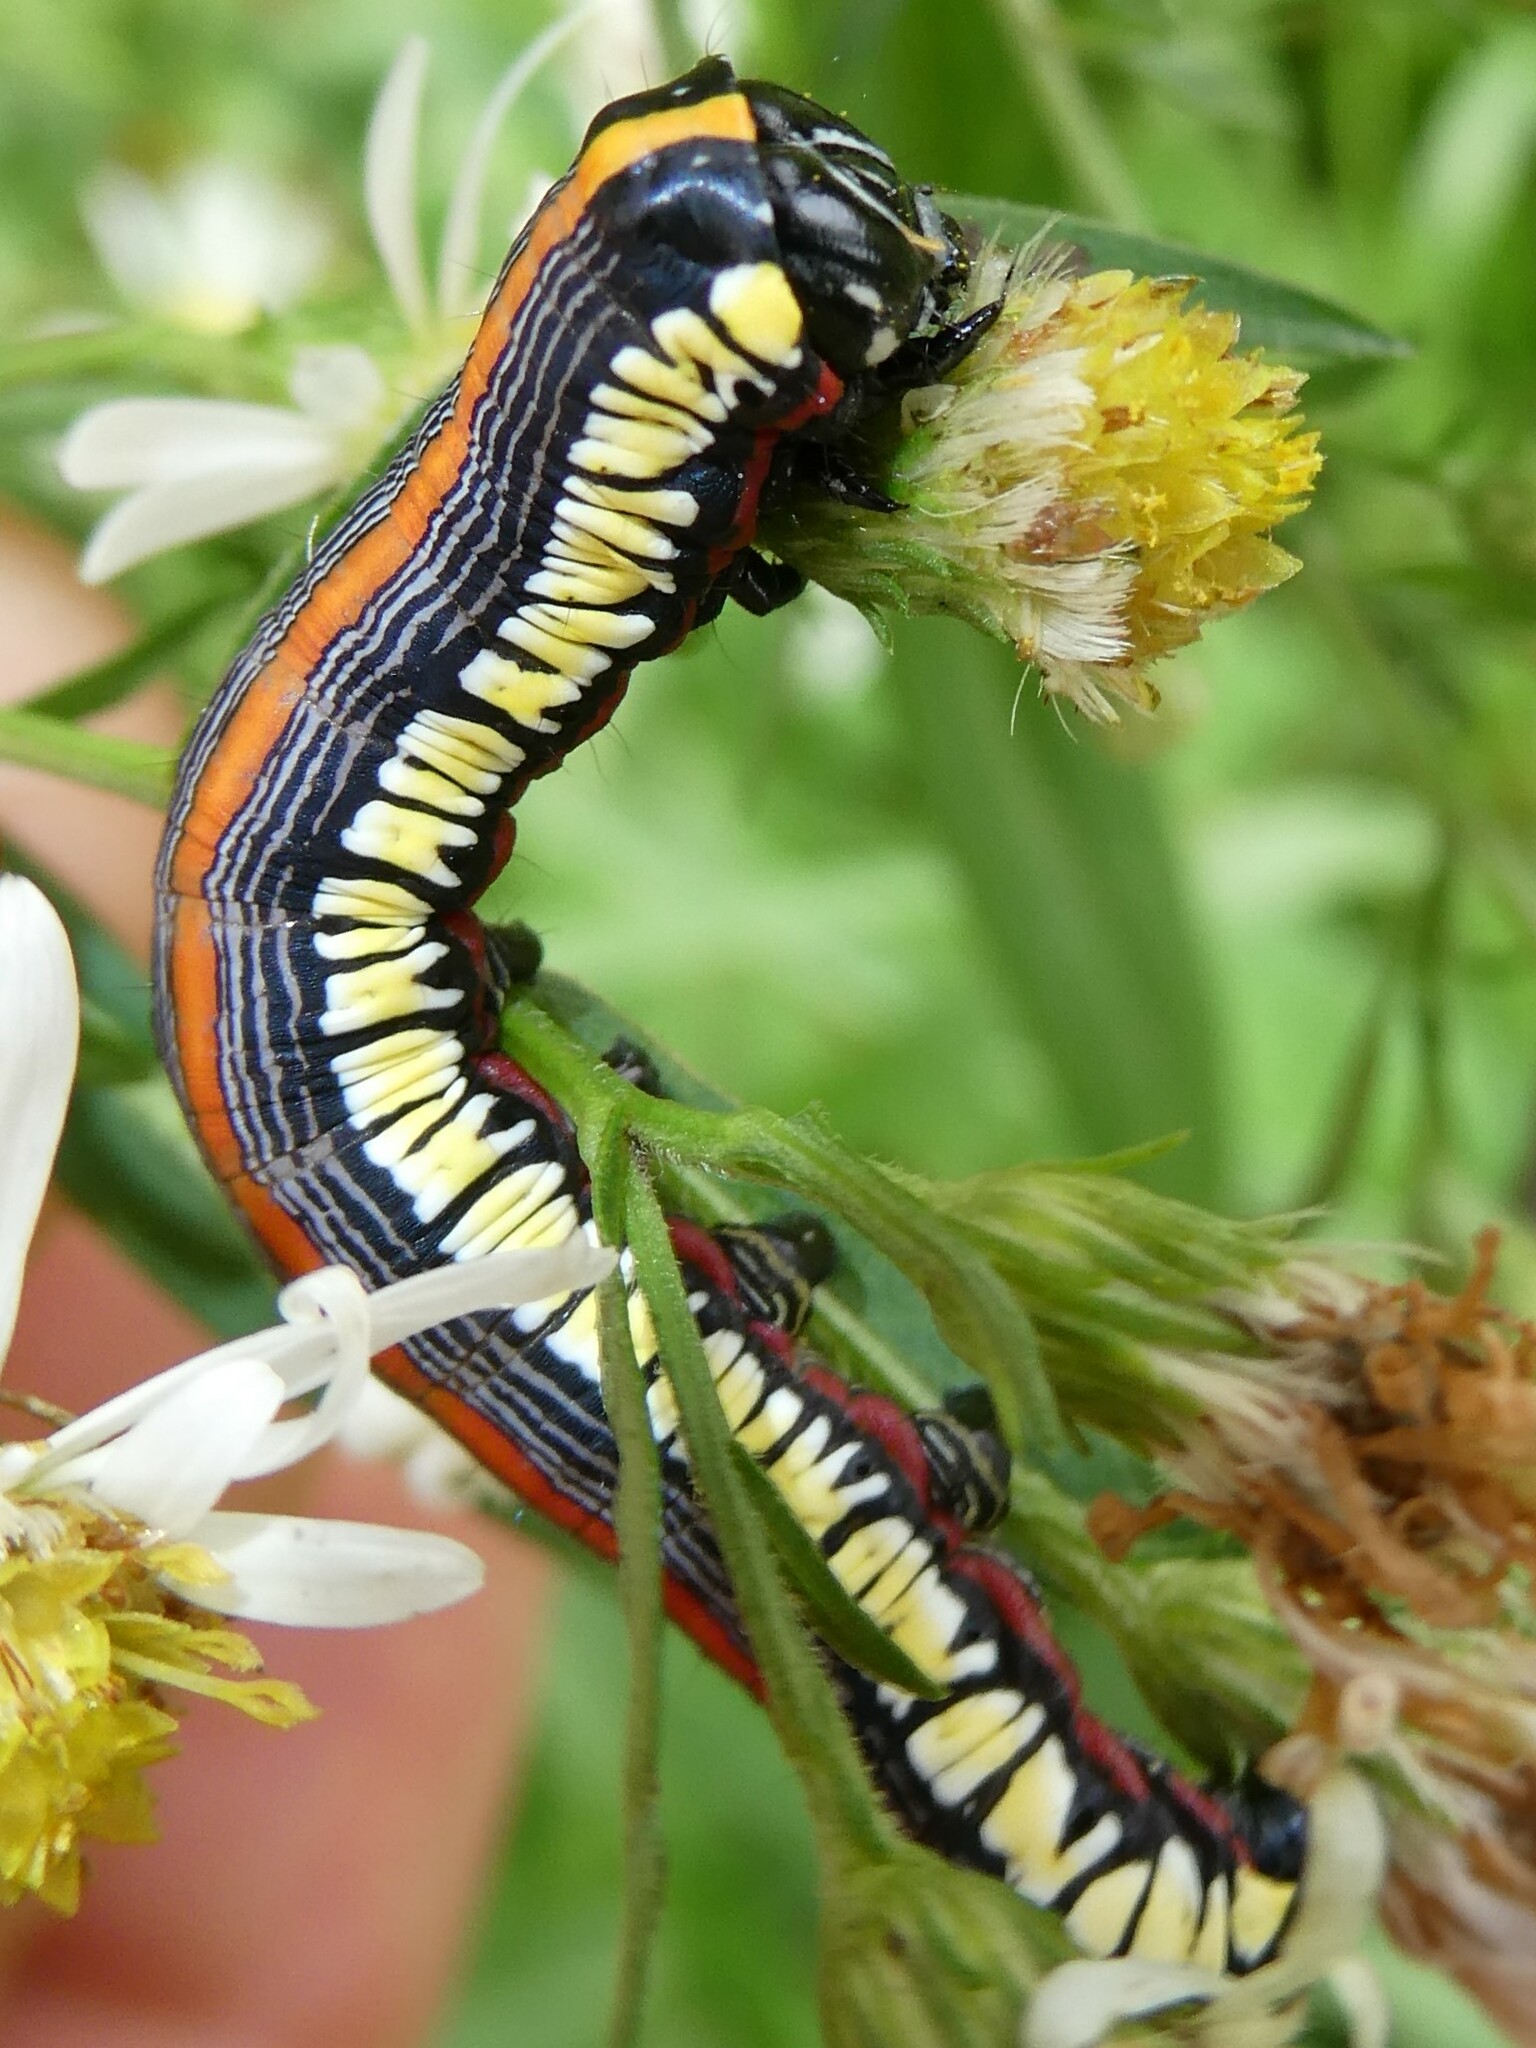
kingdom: Animalia
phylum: Arthropoda
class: Insecta
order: Lepidoptera
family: Noctuidae
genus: Cucullia
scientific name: Cucullia convexipennis
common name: Brown-hooded owlet
